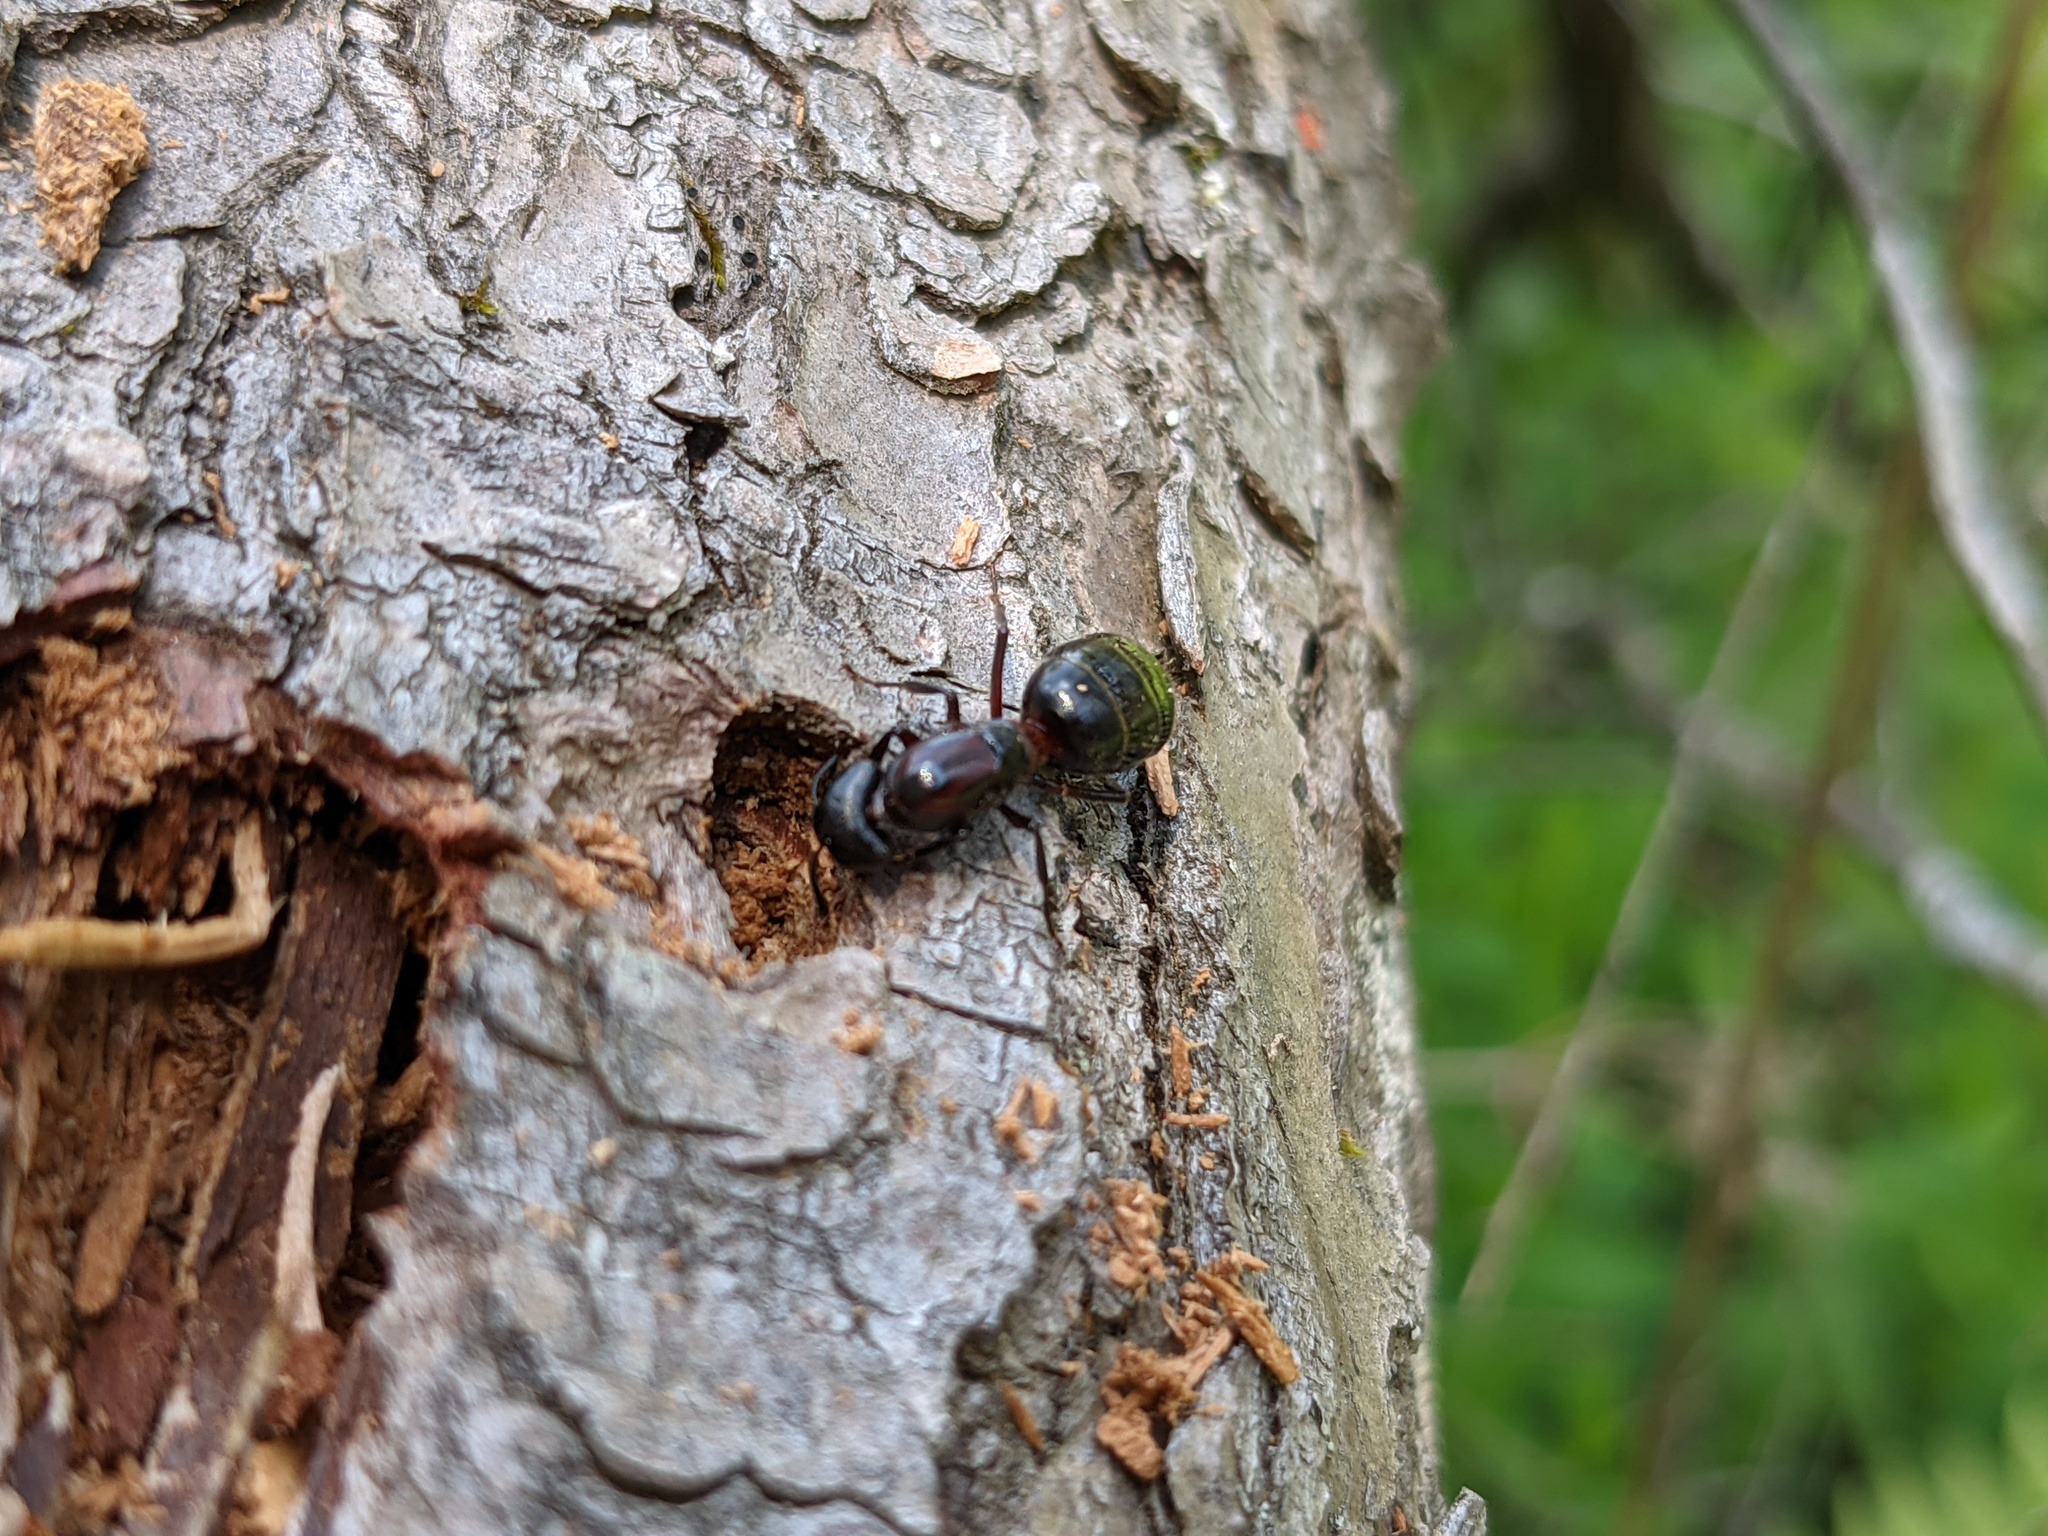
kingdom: Animalia
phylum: Arthropoda
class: Insecta
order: Hymenoptera
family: Formicidae
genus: Camponotus
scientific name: Camponotus novaeboracensis
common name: New york carpenter ant
